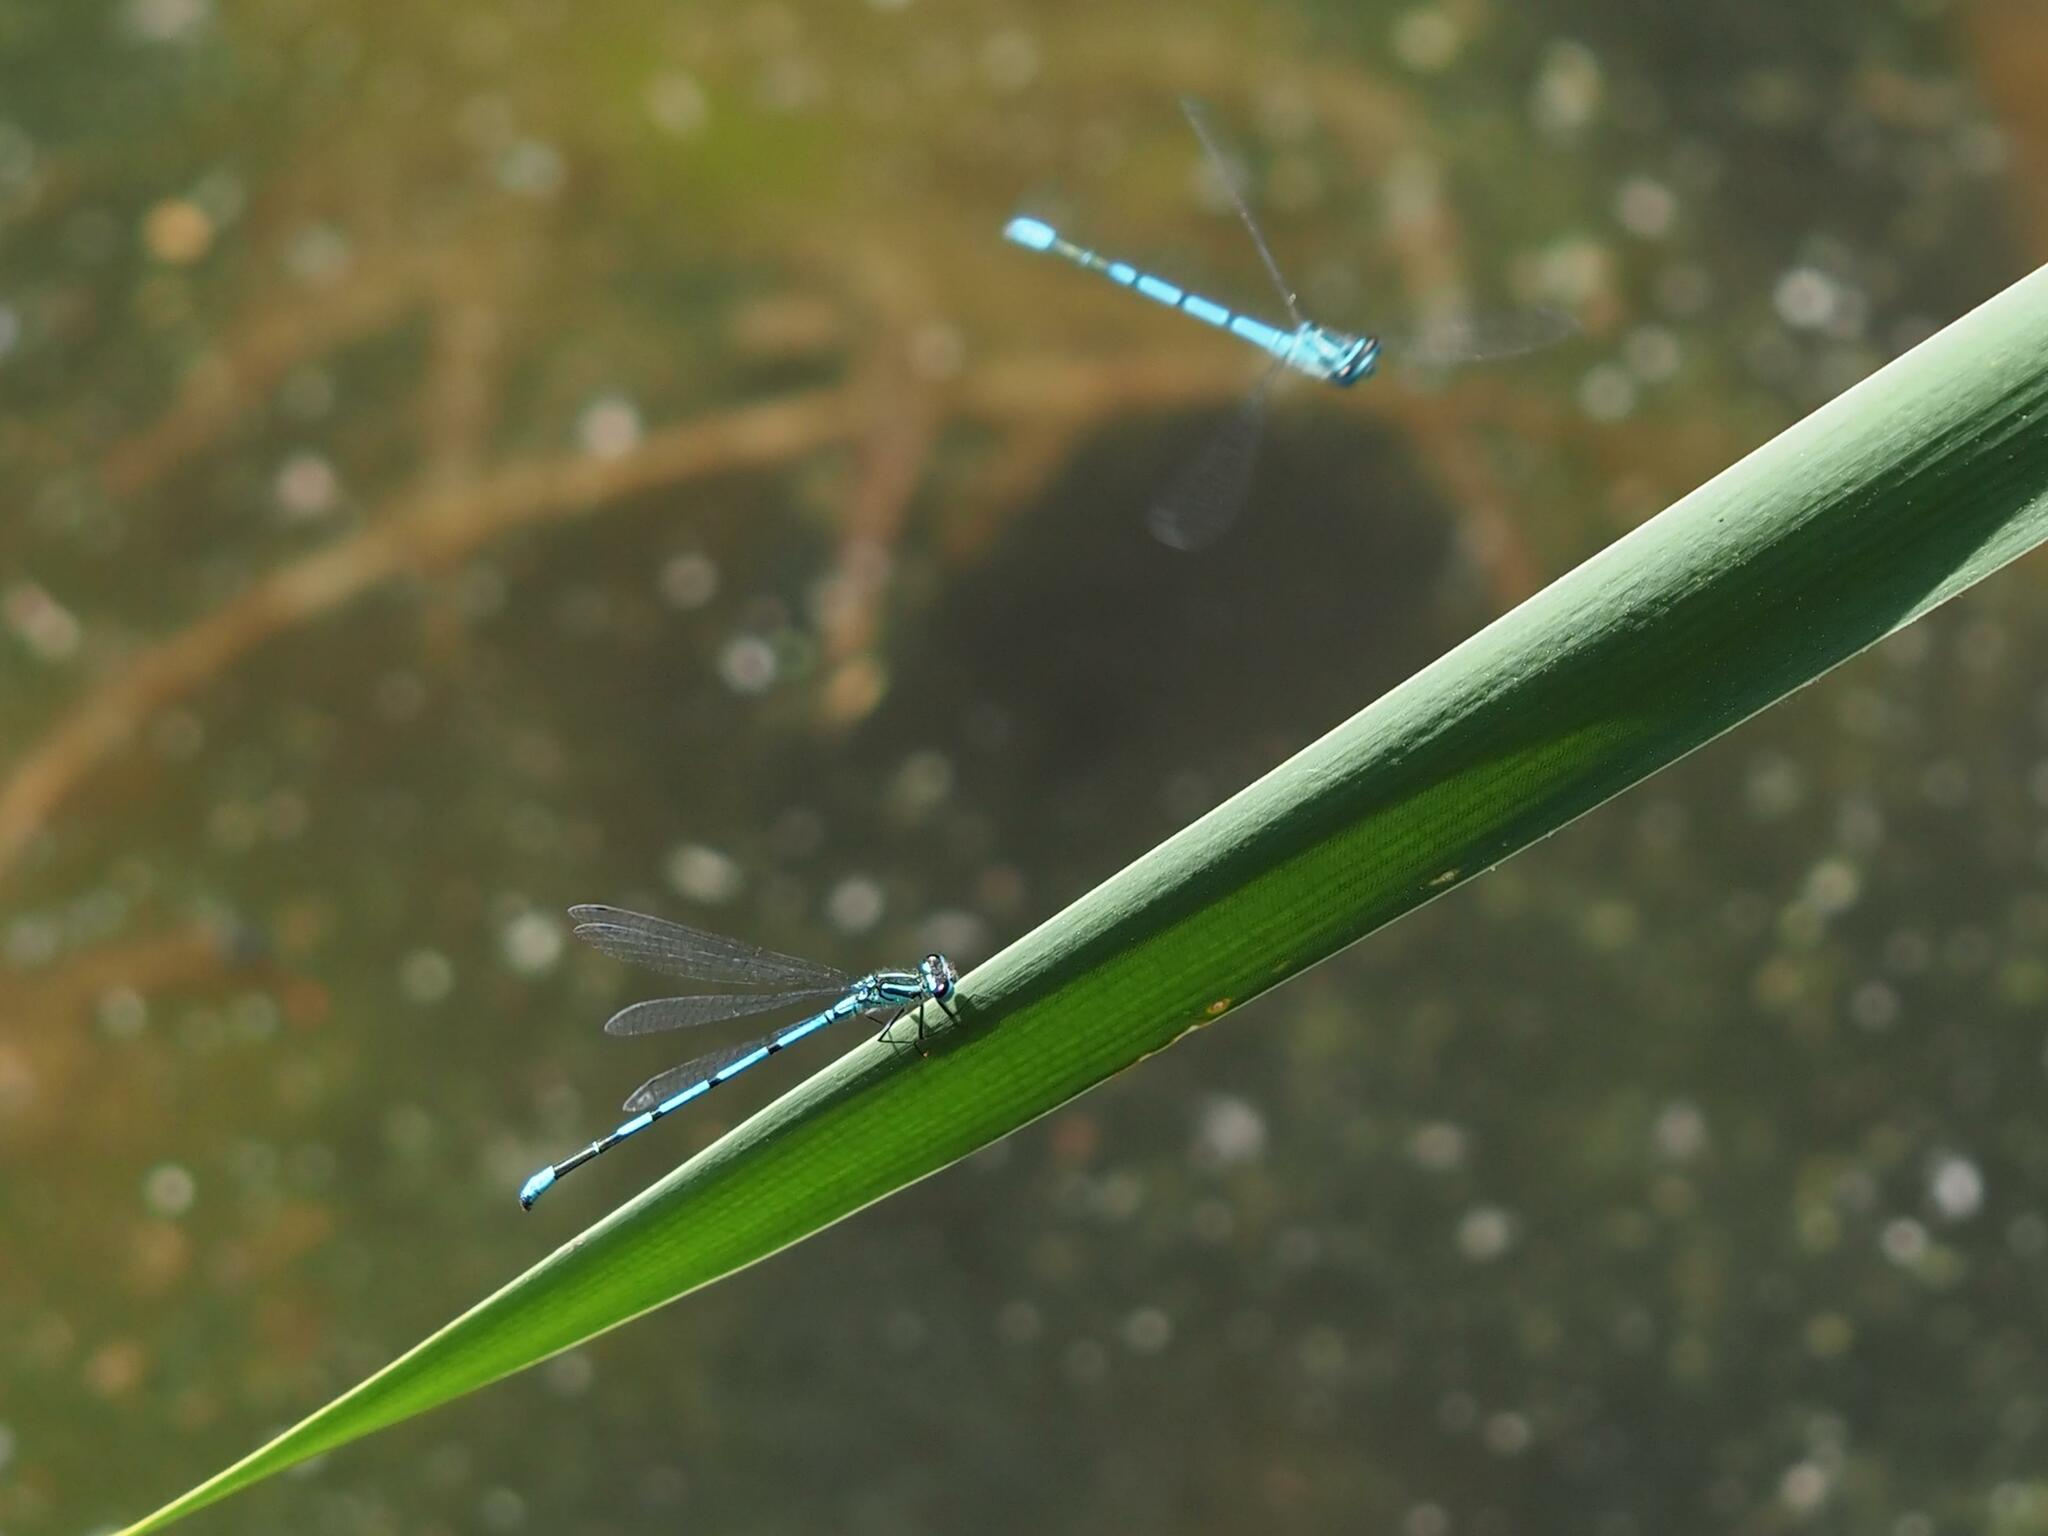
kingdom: Animalia
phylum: Arthropoda
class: Insecta
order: Odonata
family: Coenagrionidae
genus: Coenagrion
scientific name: Coenagrion puella
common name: Azure damselfly
